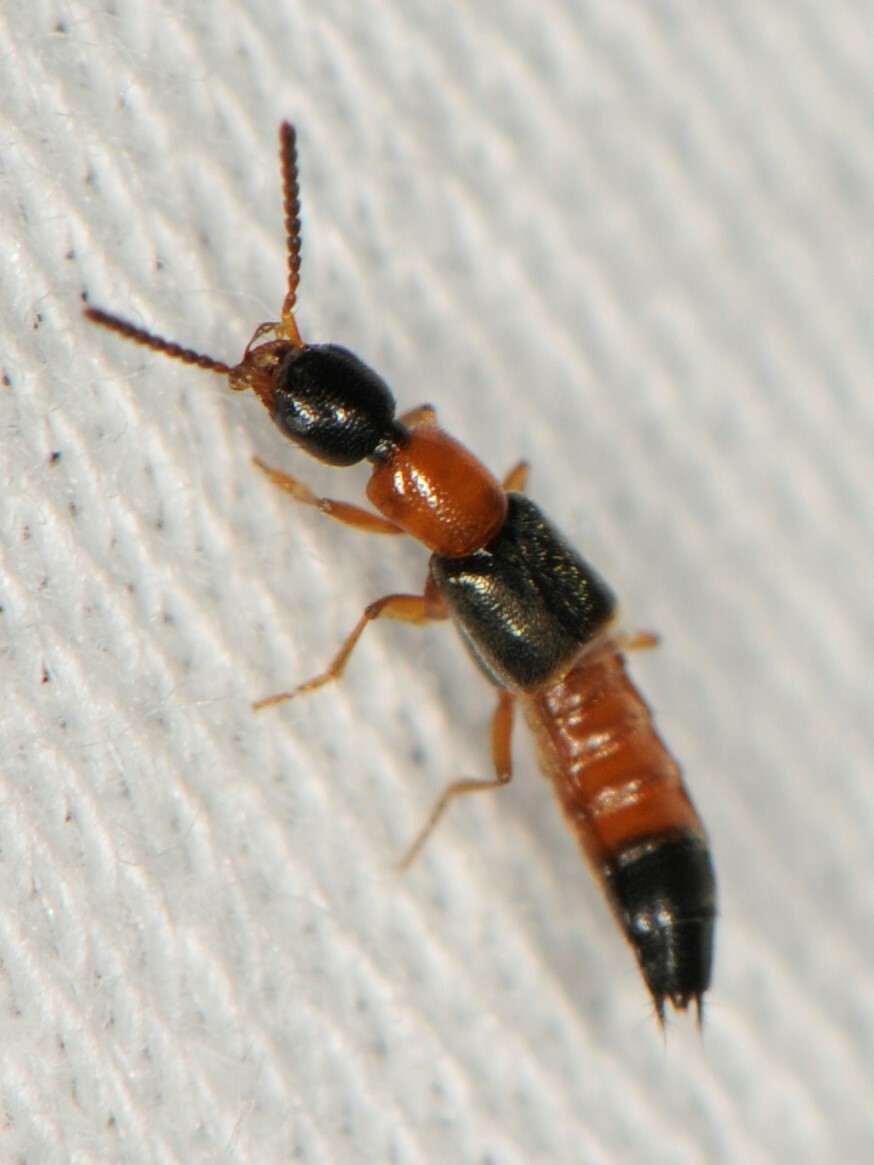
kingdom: Animalia
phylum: Arthropoda
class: Insecta
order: Coleoptera
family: Staphylinidae
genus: Neobisnius
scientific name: Neobisnius
